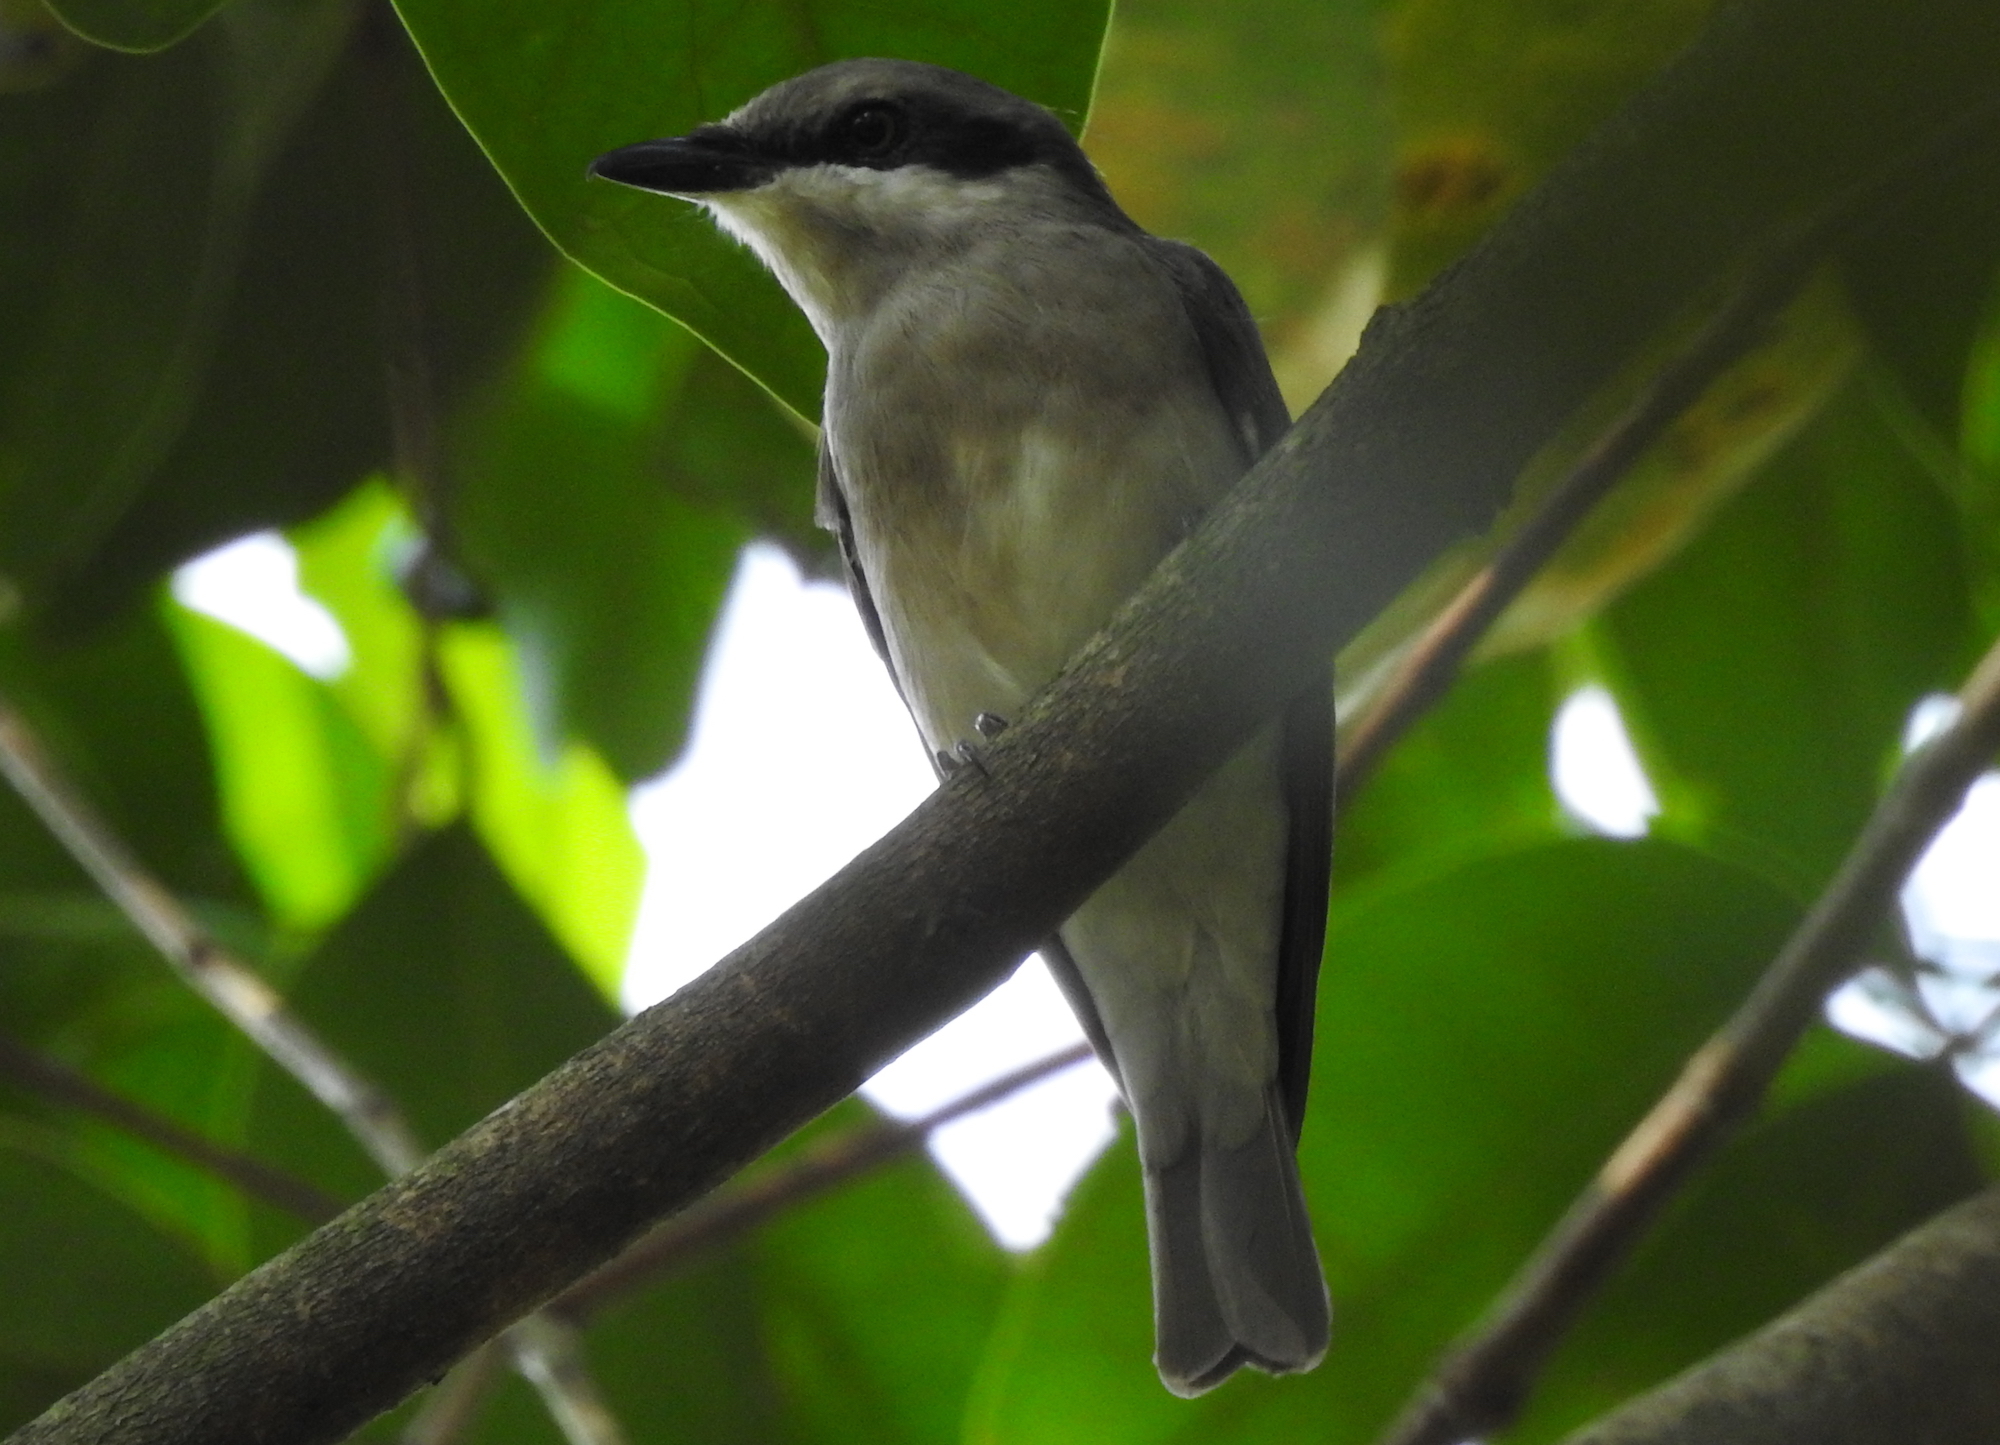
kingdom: Animalia
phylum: Chordata
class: Aves
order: Passeriformes
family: Tephrodornithidae
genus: Tephrodornis
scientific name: Tephrodornis virgatus
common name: Large woodshrike
